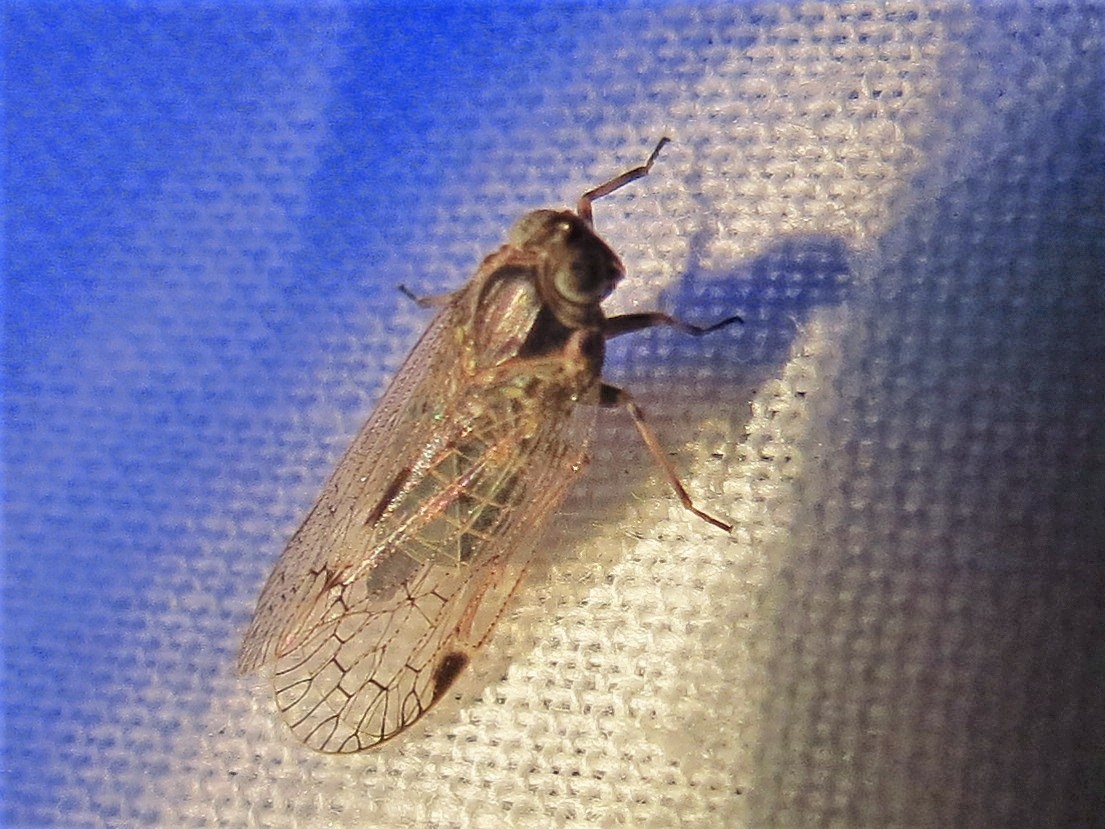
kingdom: Animalia
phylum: Arthropoda
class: Insecta
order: Hemiptera
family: Cixiidae
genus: Melanoliarus
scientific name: Melanoliarus aridus
